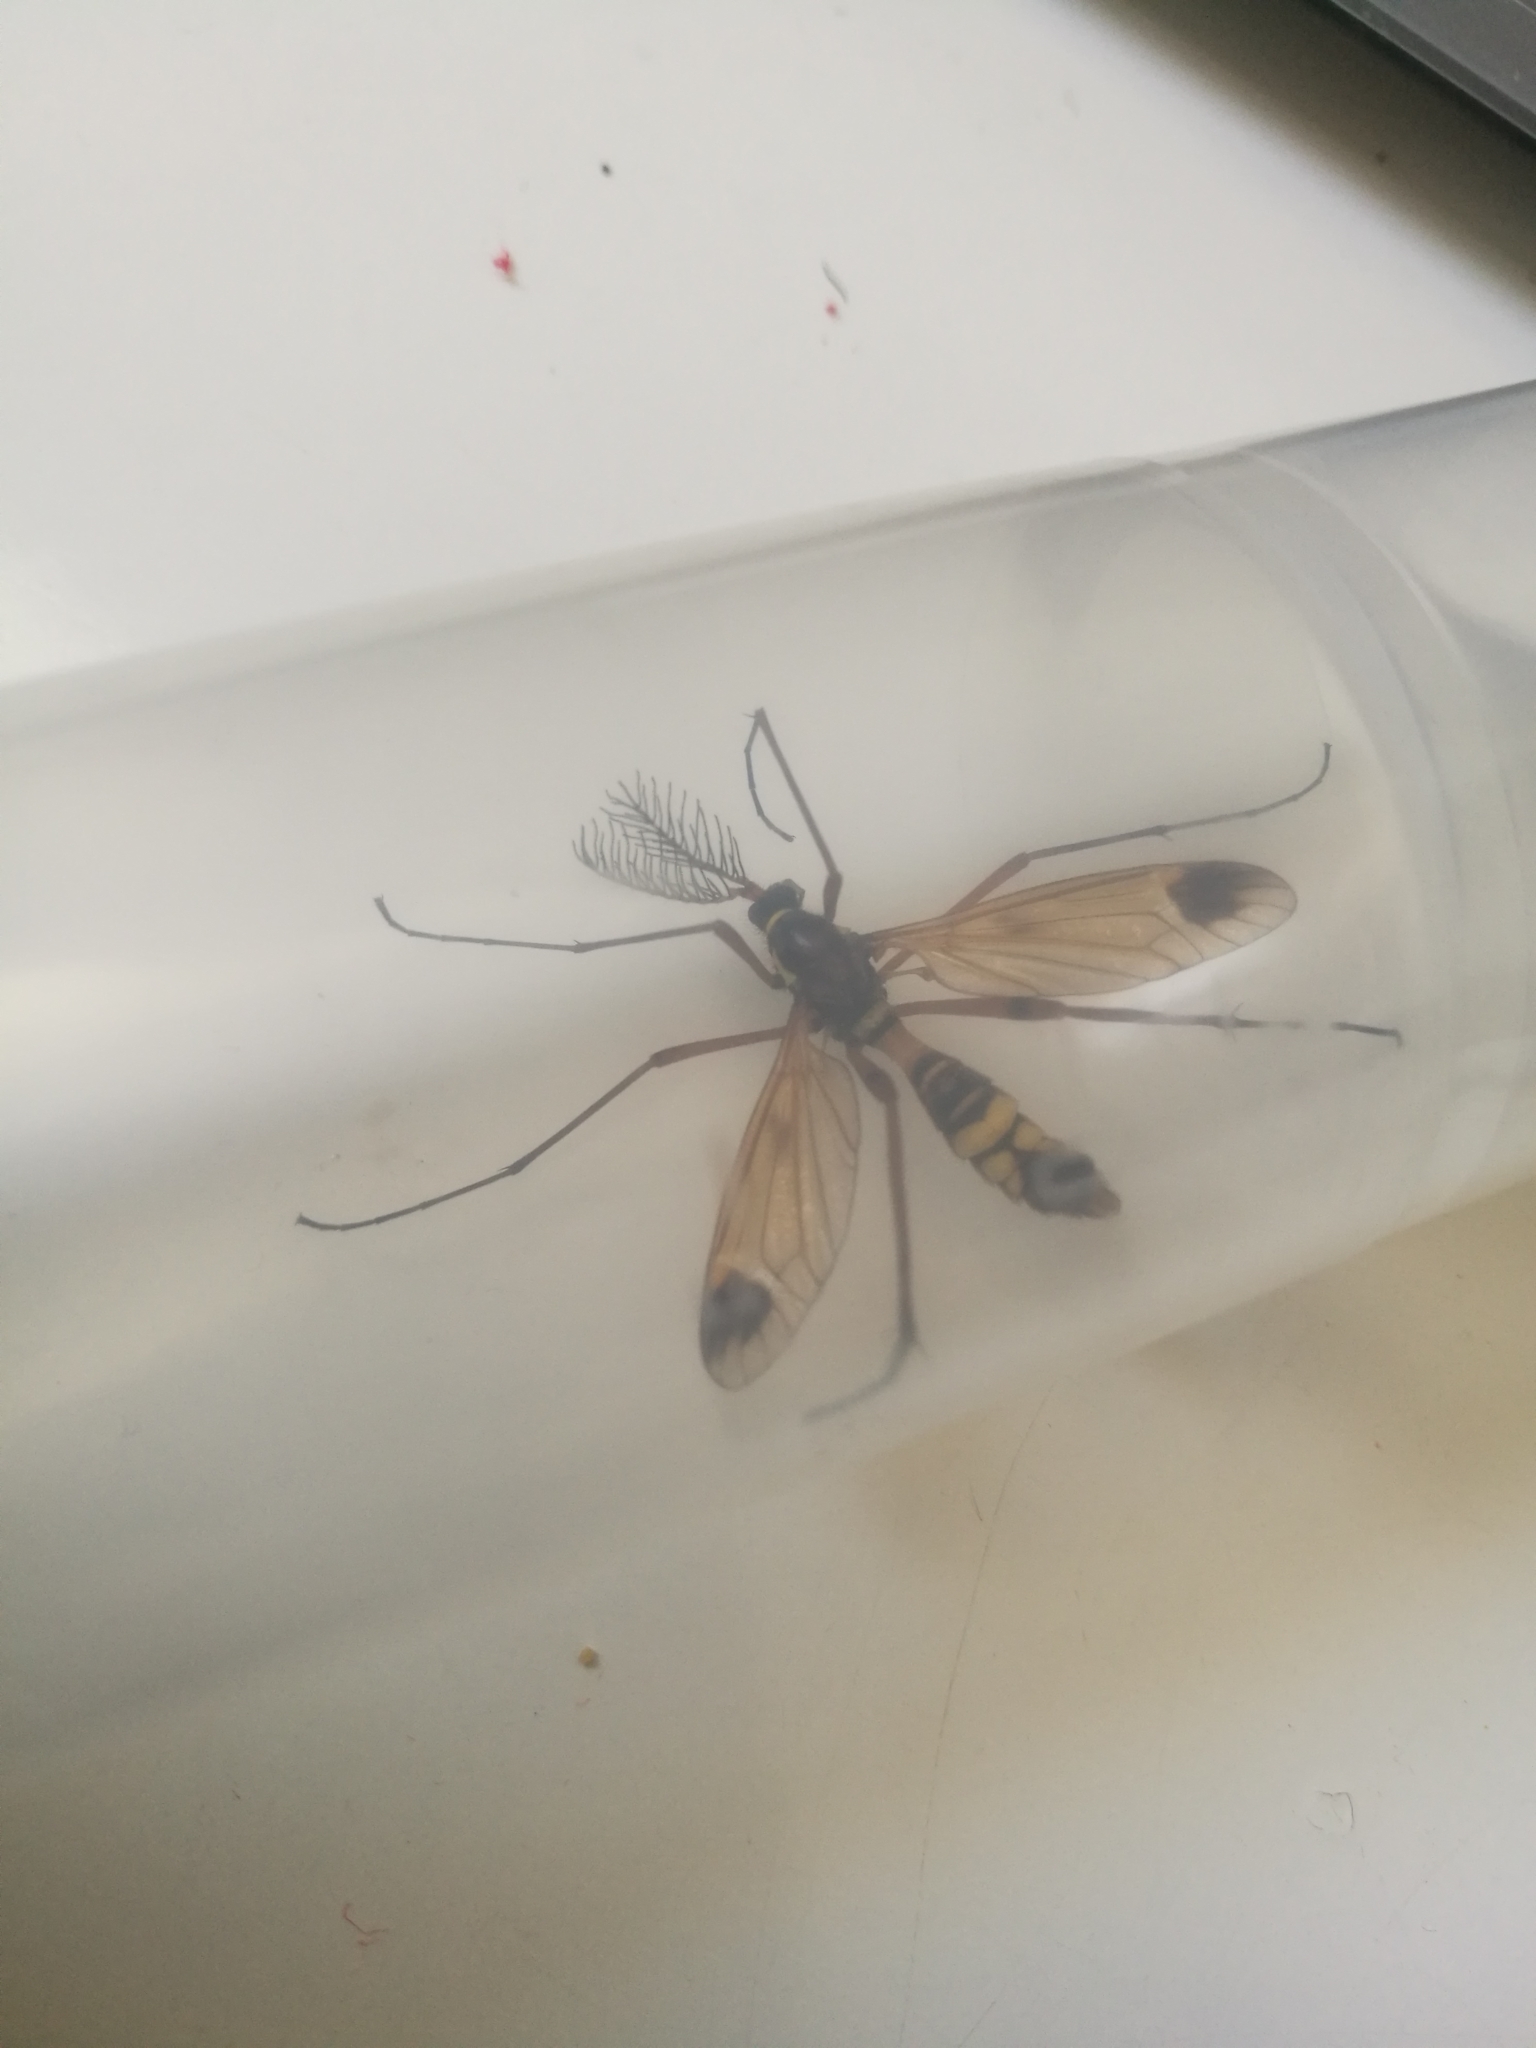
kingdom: Animalia
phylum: Arthropoda
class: Insecta
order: Diptera
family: Tipulidae
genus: Ctenophora
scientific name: Ctenophora ornata
